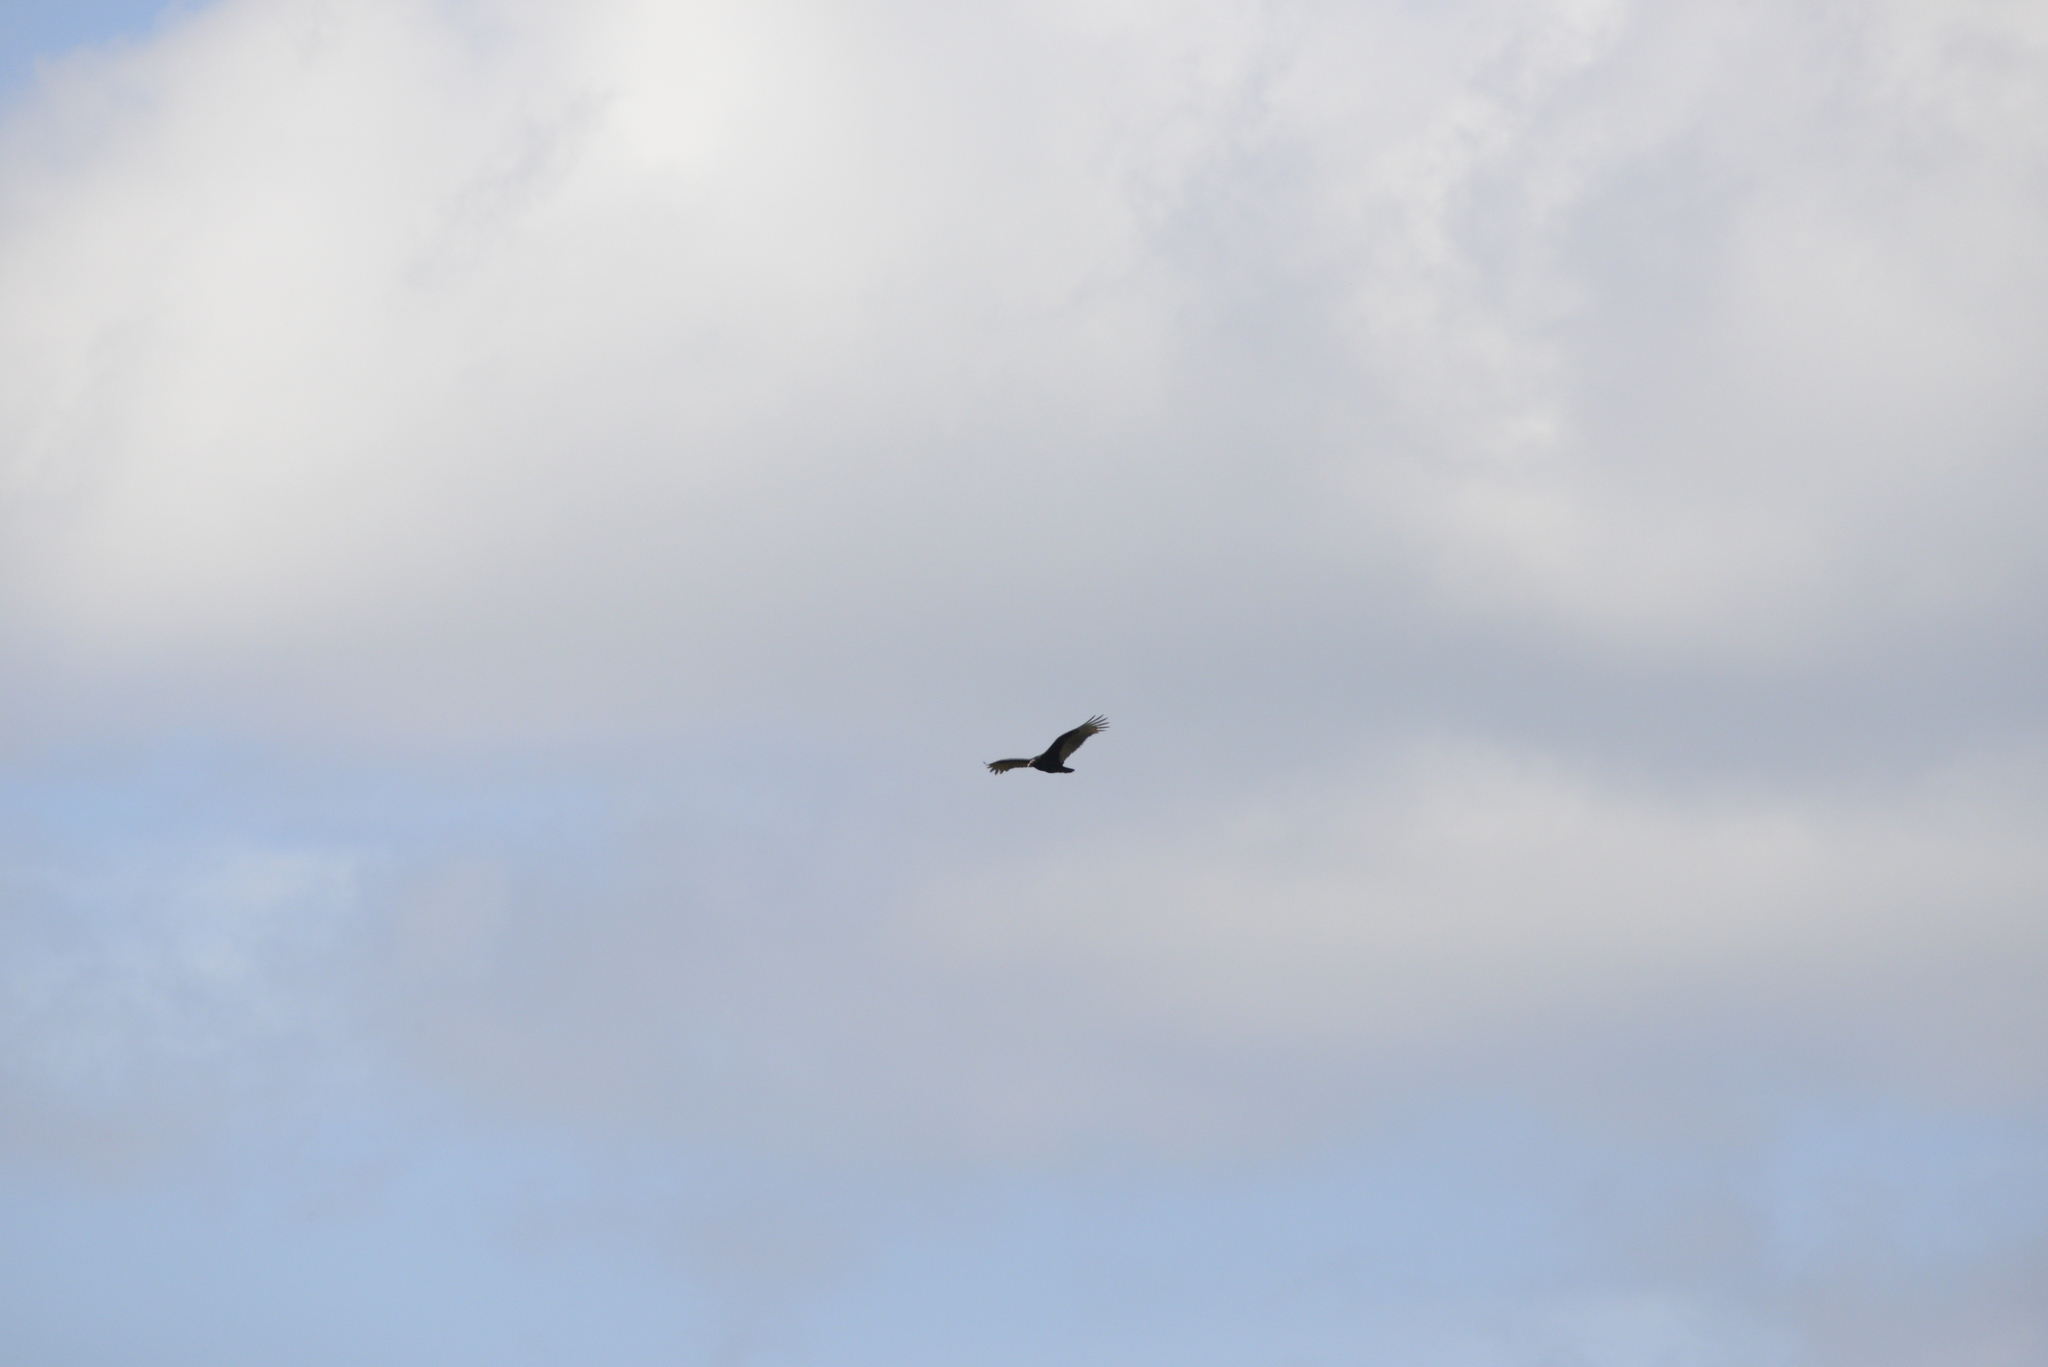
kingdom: Animalia
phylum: Chordata
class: Aves
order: Accipitriformes
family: Cathartidae
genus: Cathartes
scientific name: Cathartes aura
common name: Turkey vulture
